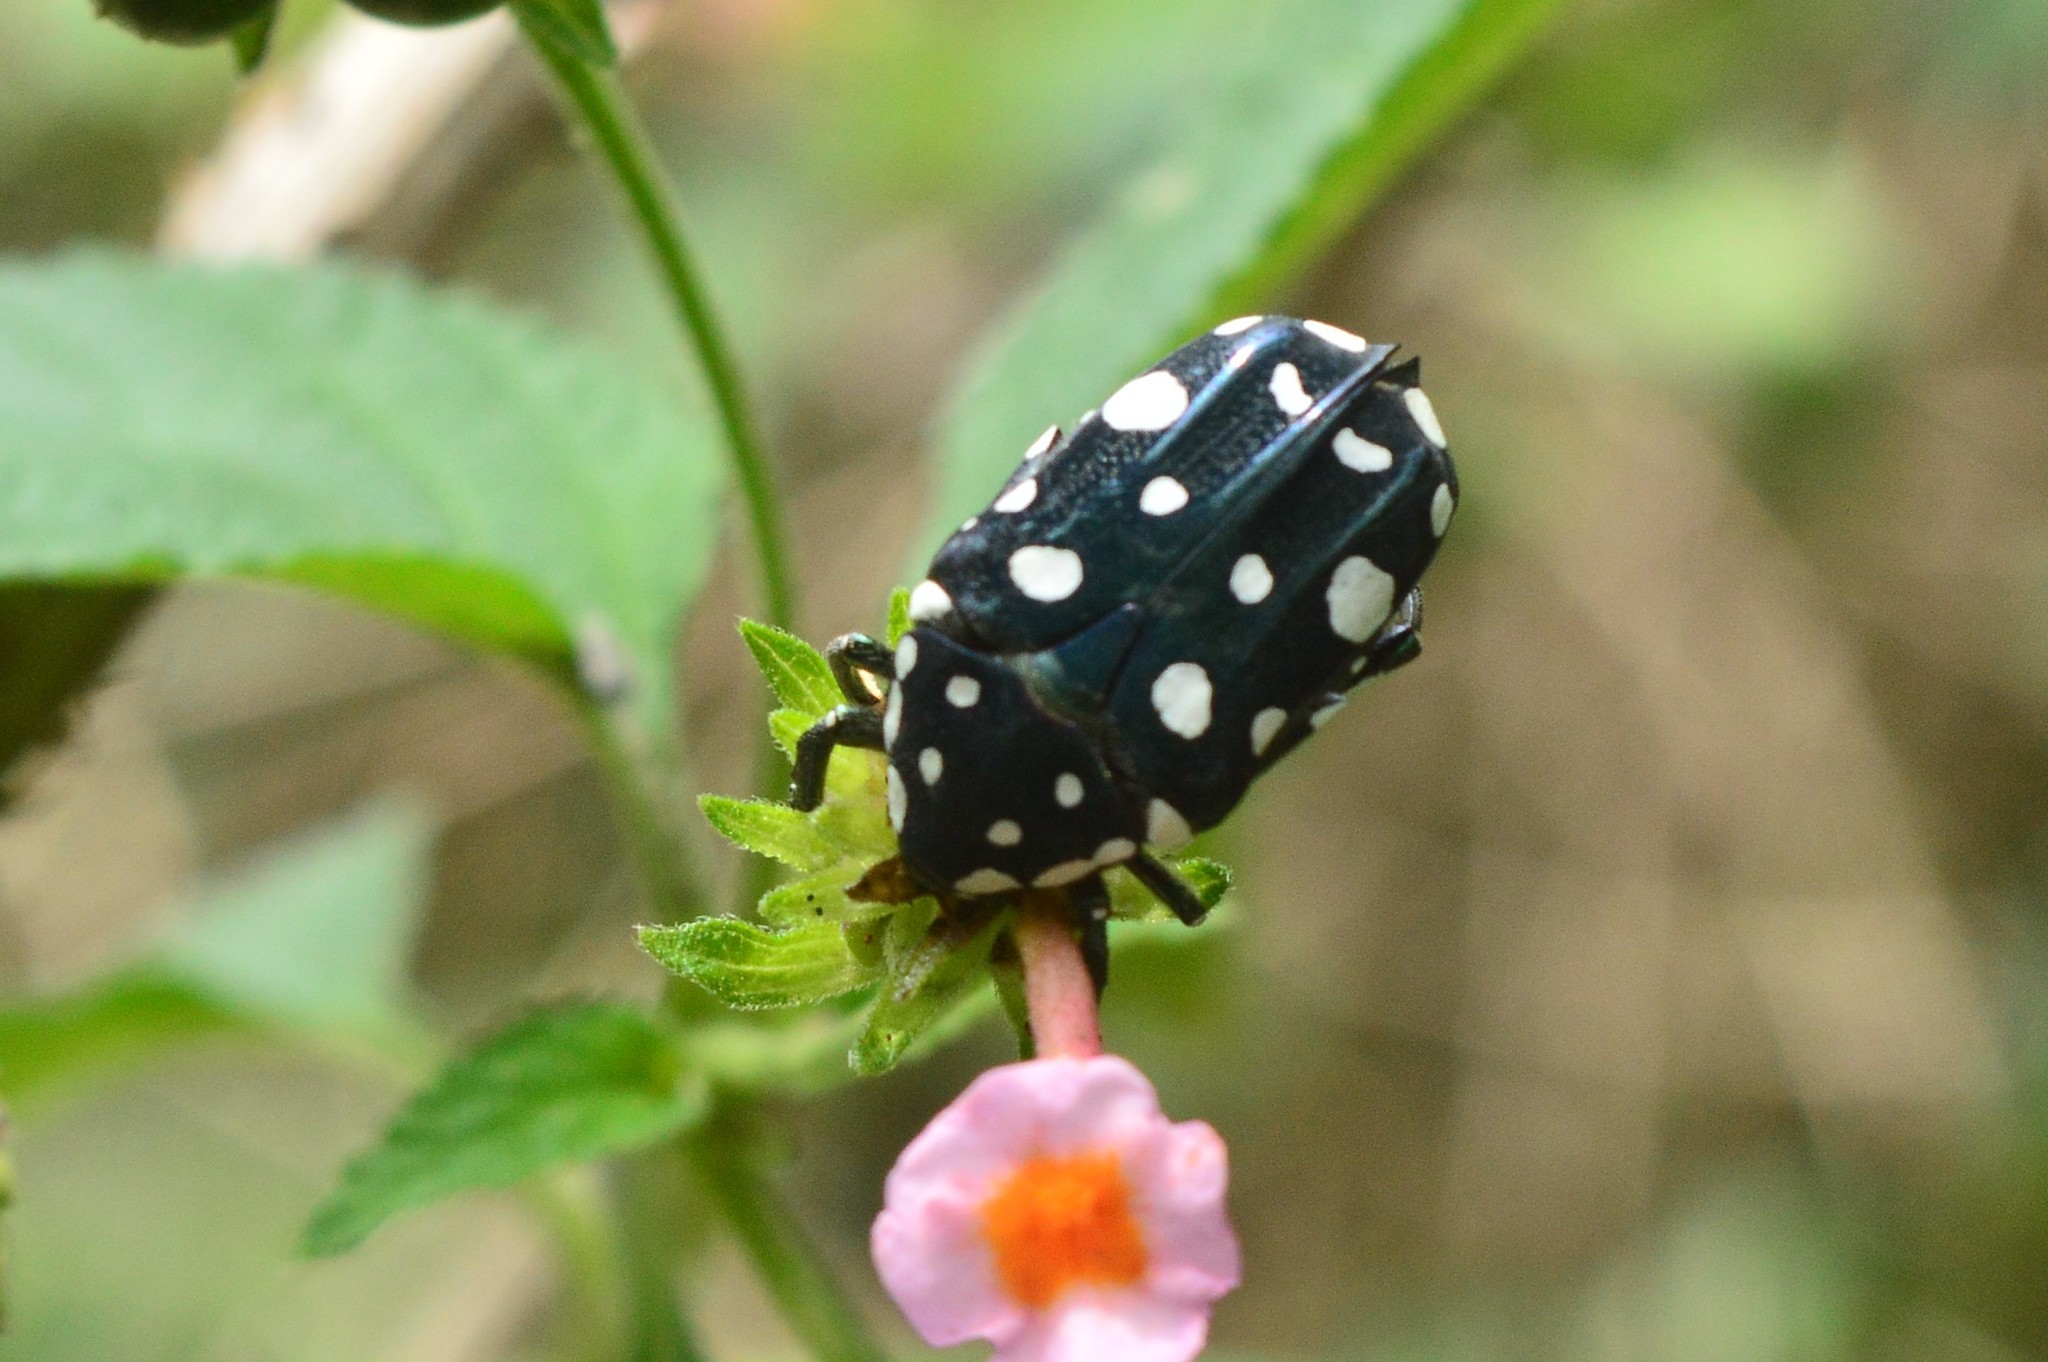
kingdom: Animalia
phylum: Arthropoda
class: Insecta
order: Coleoptera
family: Scarabaeidae
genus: Protaetia
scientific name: Protaetia alboguttata
